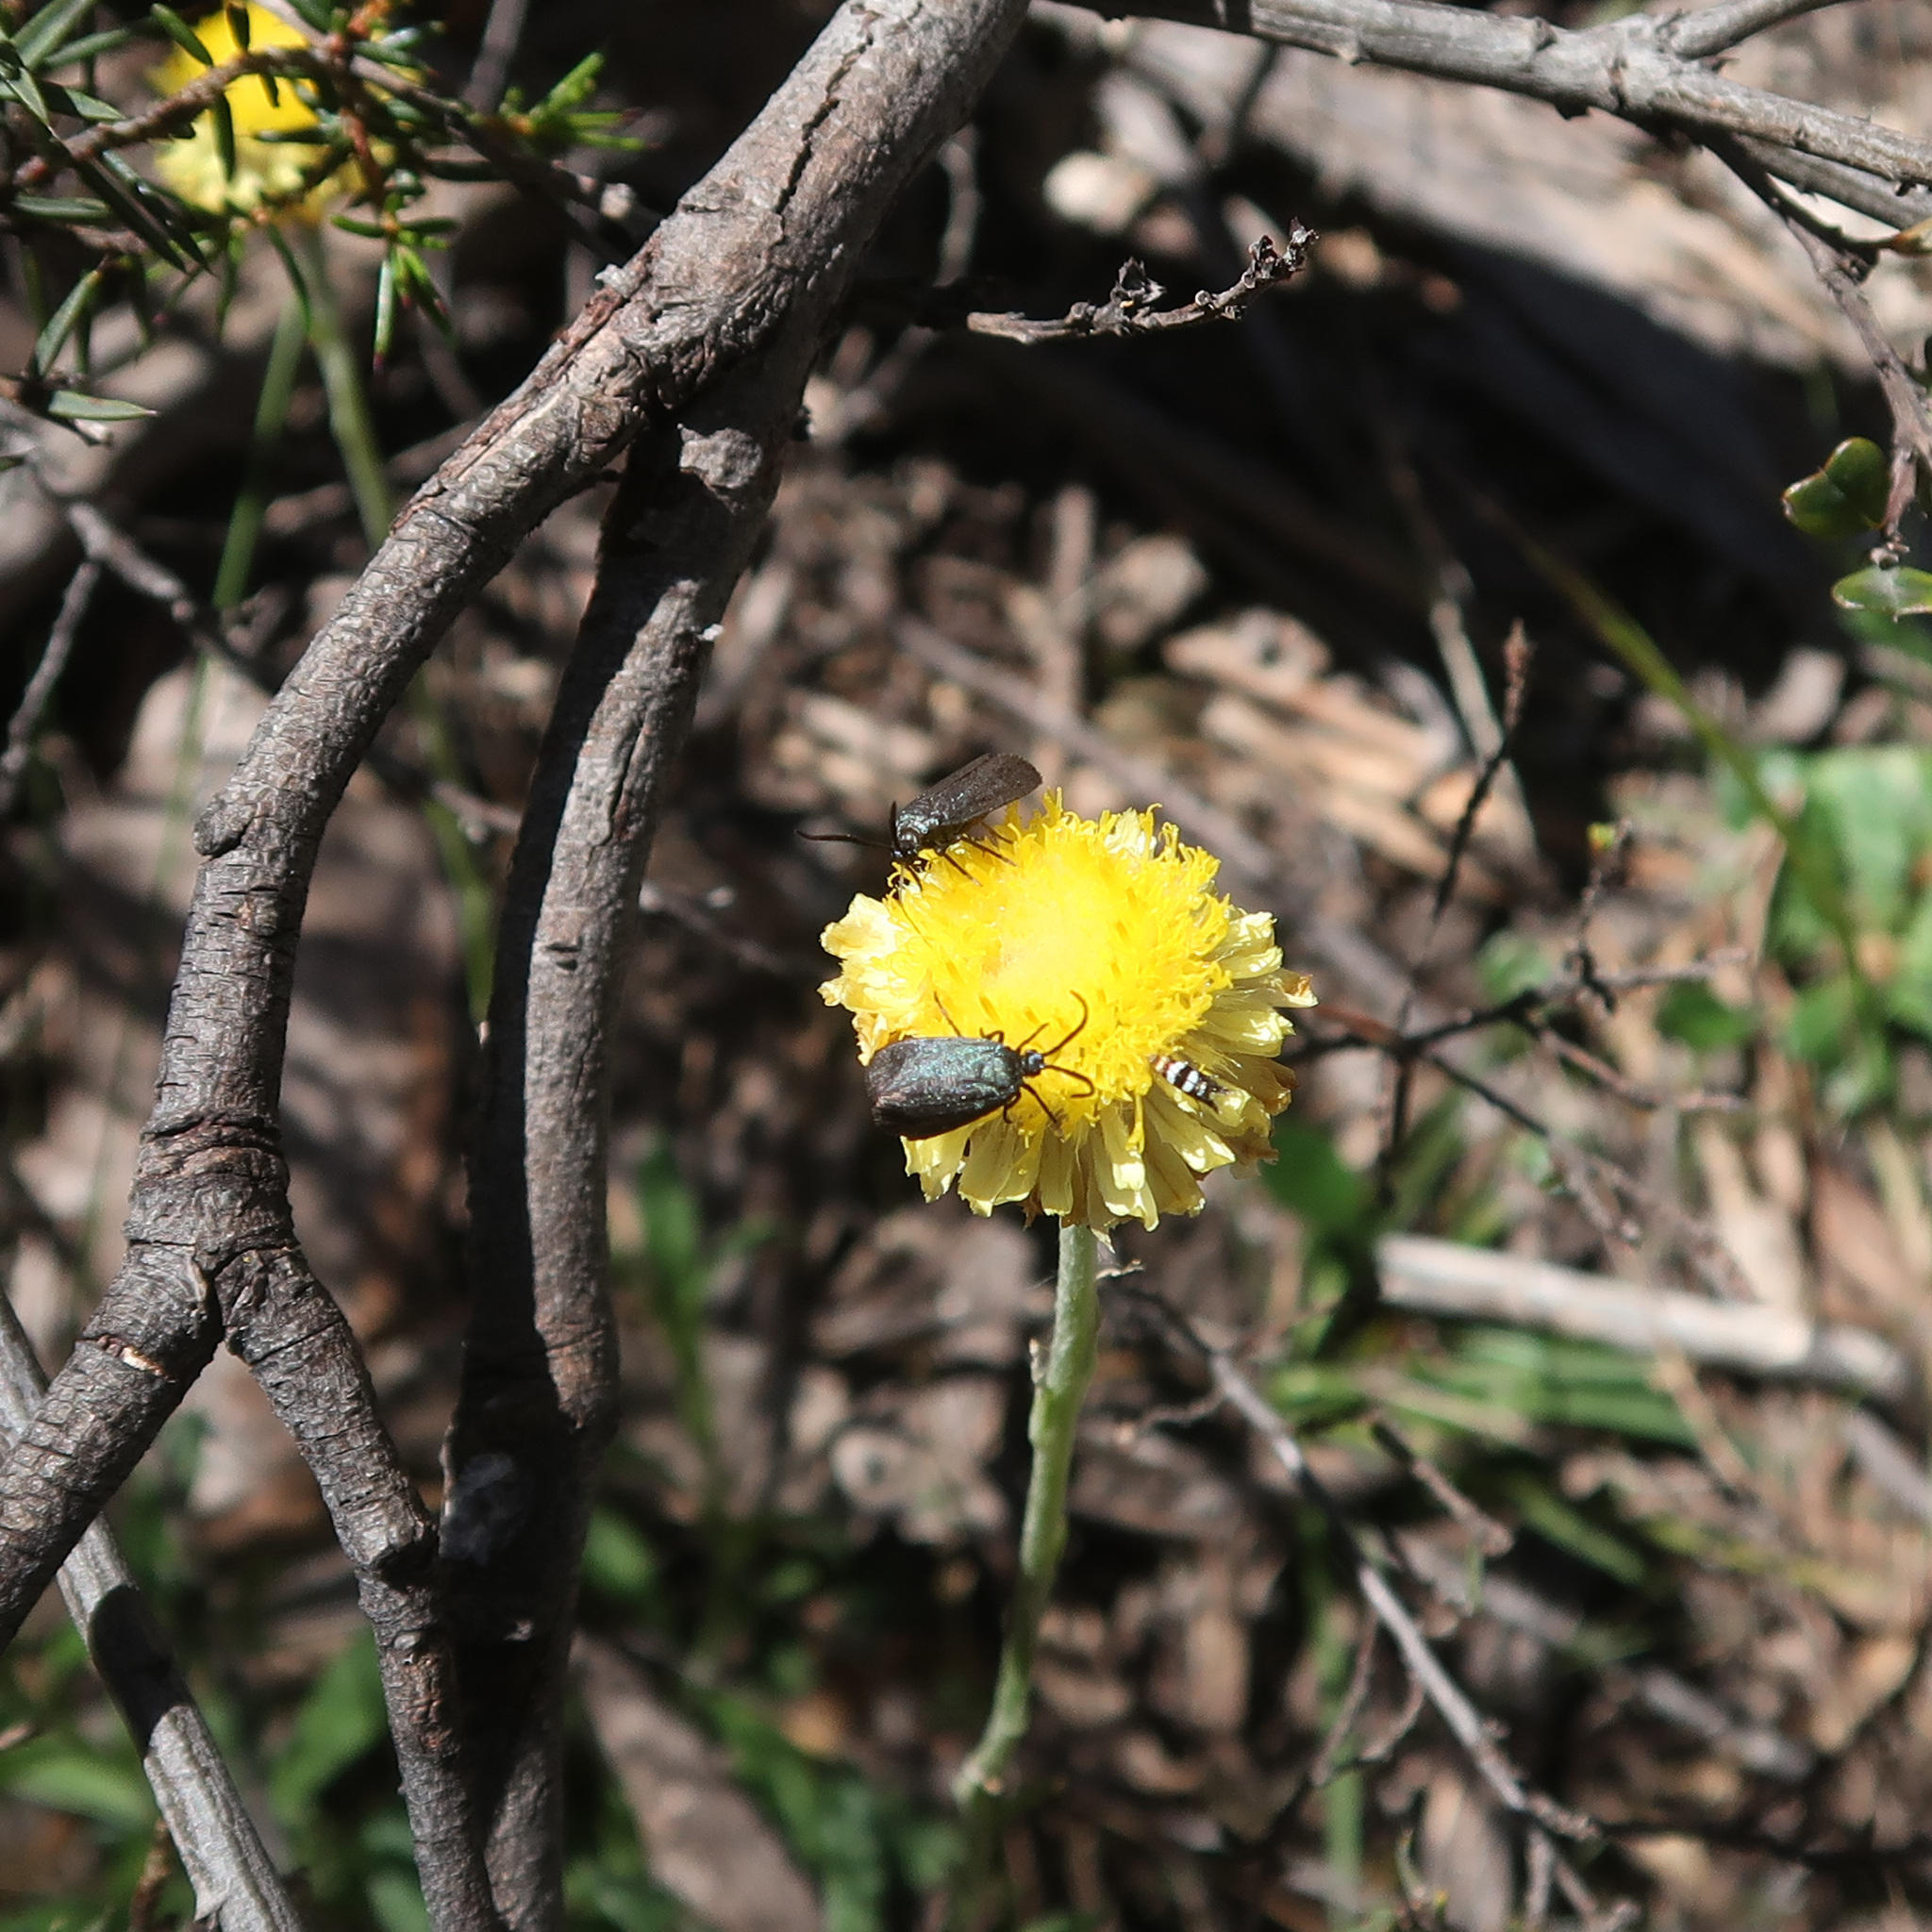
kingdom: Animalia
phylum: Arthropoda
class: Insecta
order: Lepidoptera
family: Zygaenidae
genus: Turneriprocris
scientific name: Turneriprocris dolens
